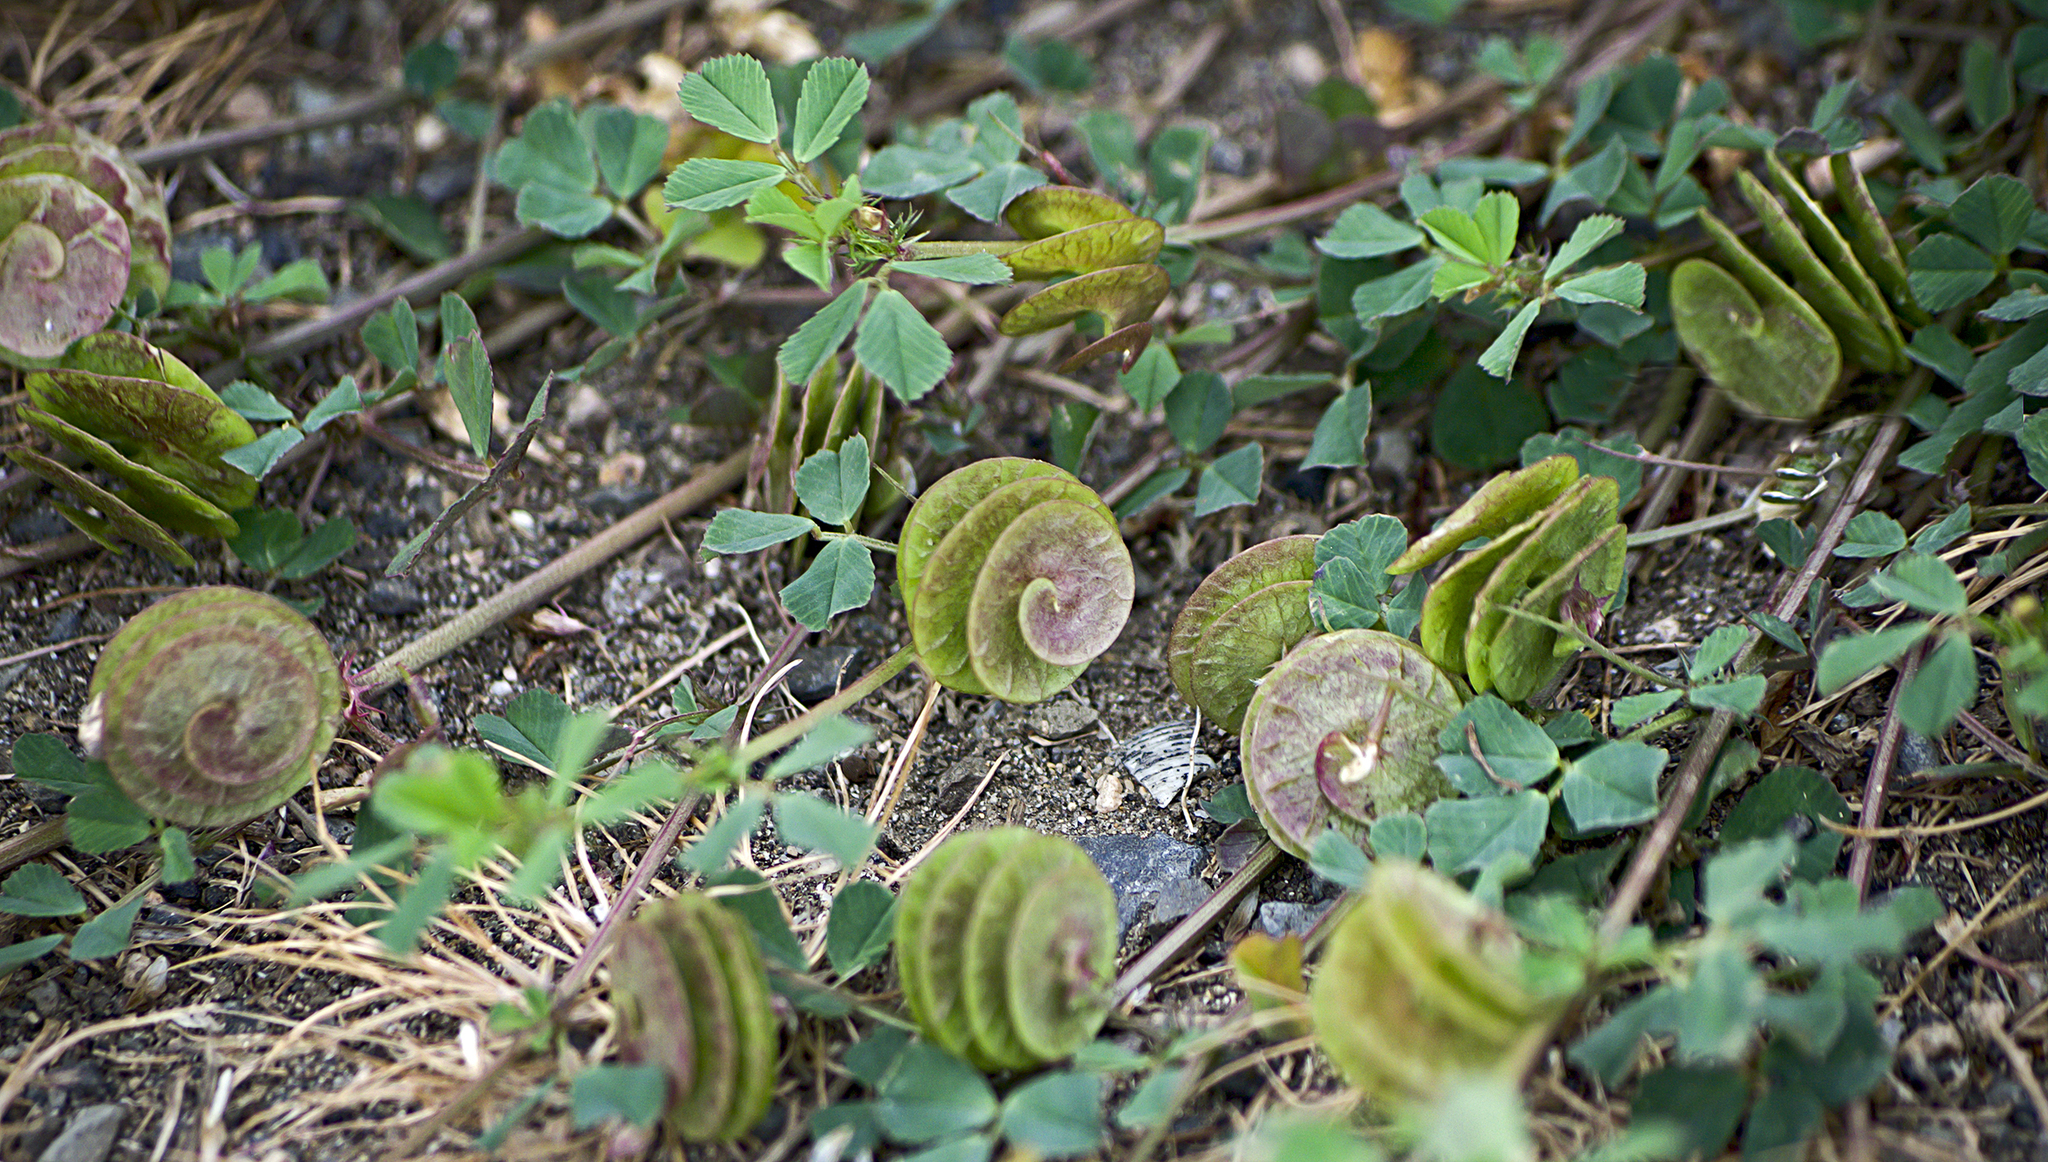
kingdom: Plantae
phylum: Tracheophyta
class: Magnoliopsida
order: Fabales
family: Fabaceae
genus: Medicago
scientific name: Medicago orbicularis
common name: Button medick
